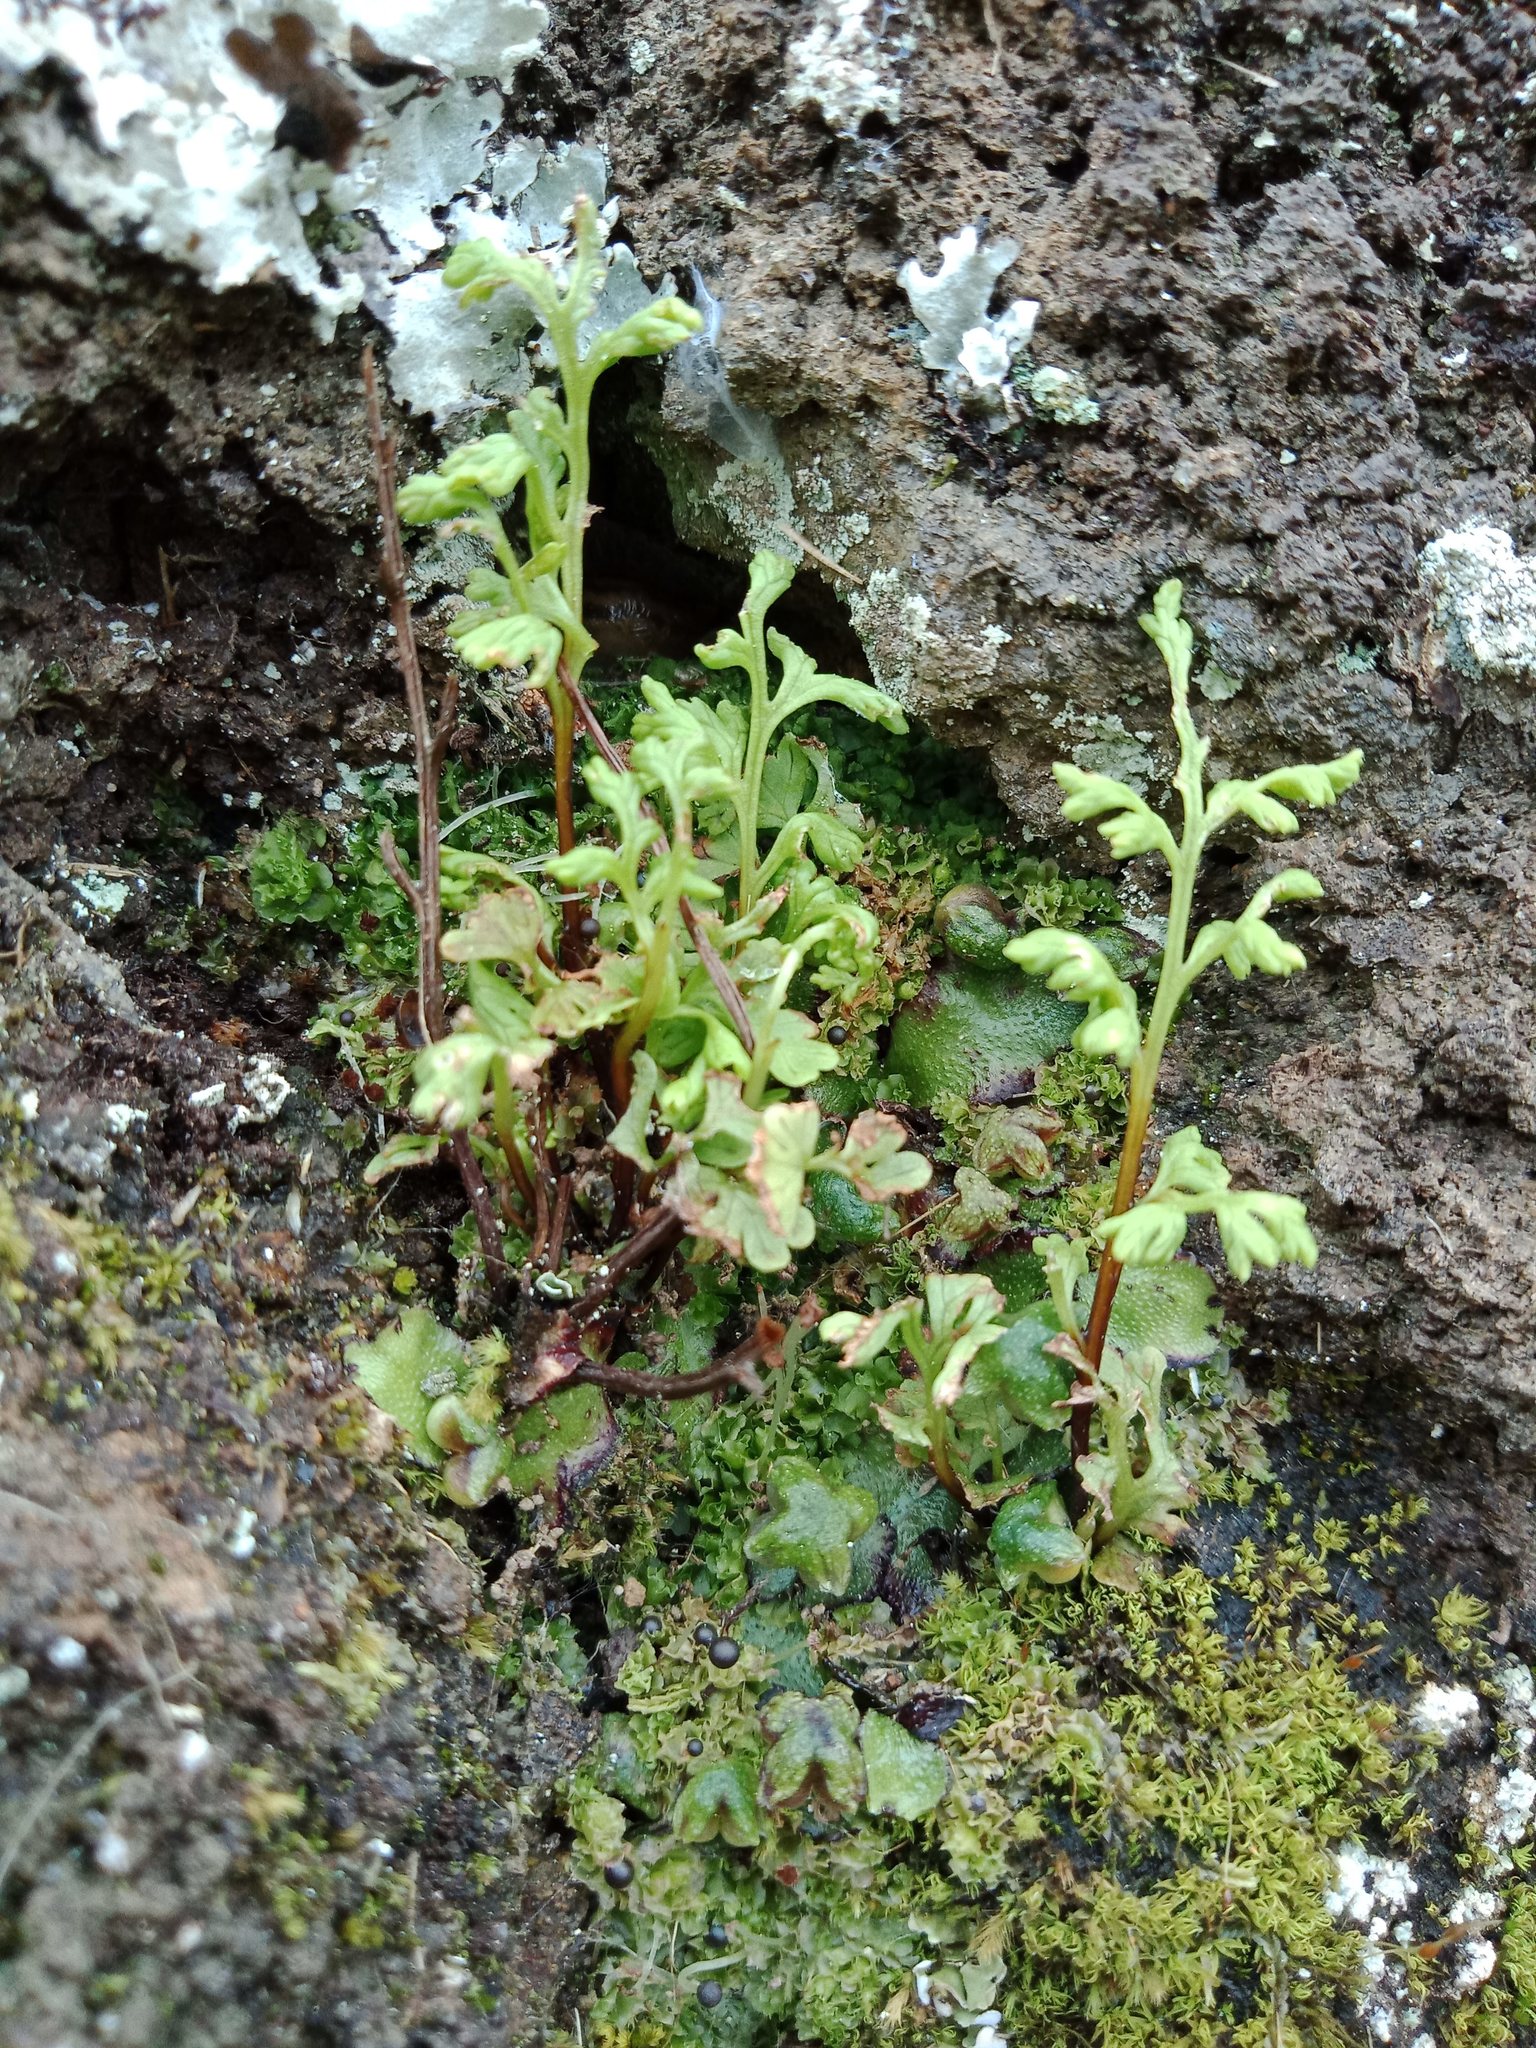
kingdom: Plantae
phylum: Tracheophyta
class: Polypodiopsida
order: Polypodiales
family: Pteridaceae
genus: Anogramma
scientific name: Anogramma leptophylla
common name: Jersey fern
